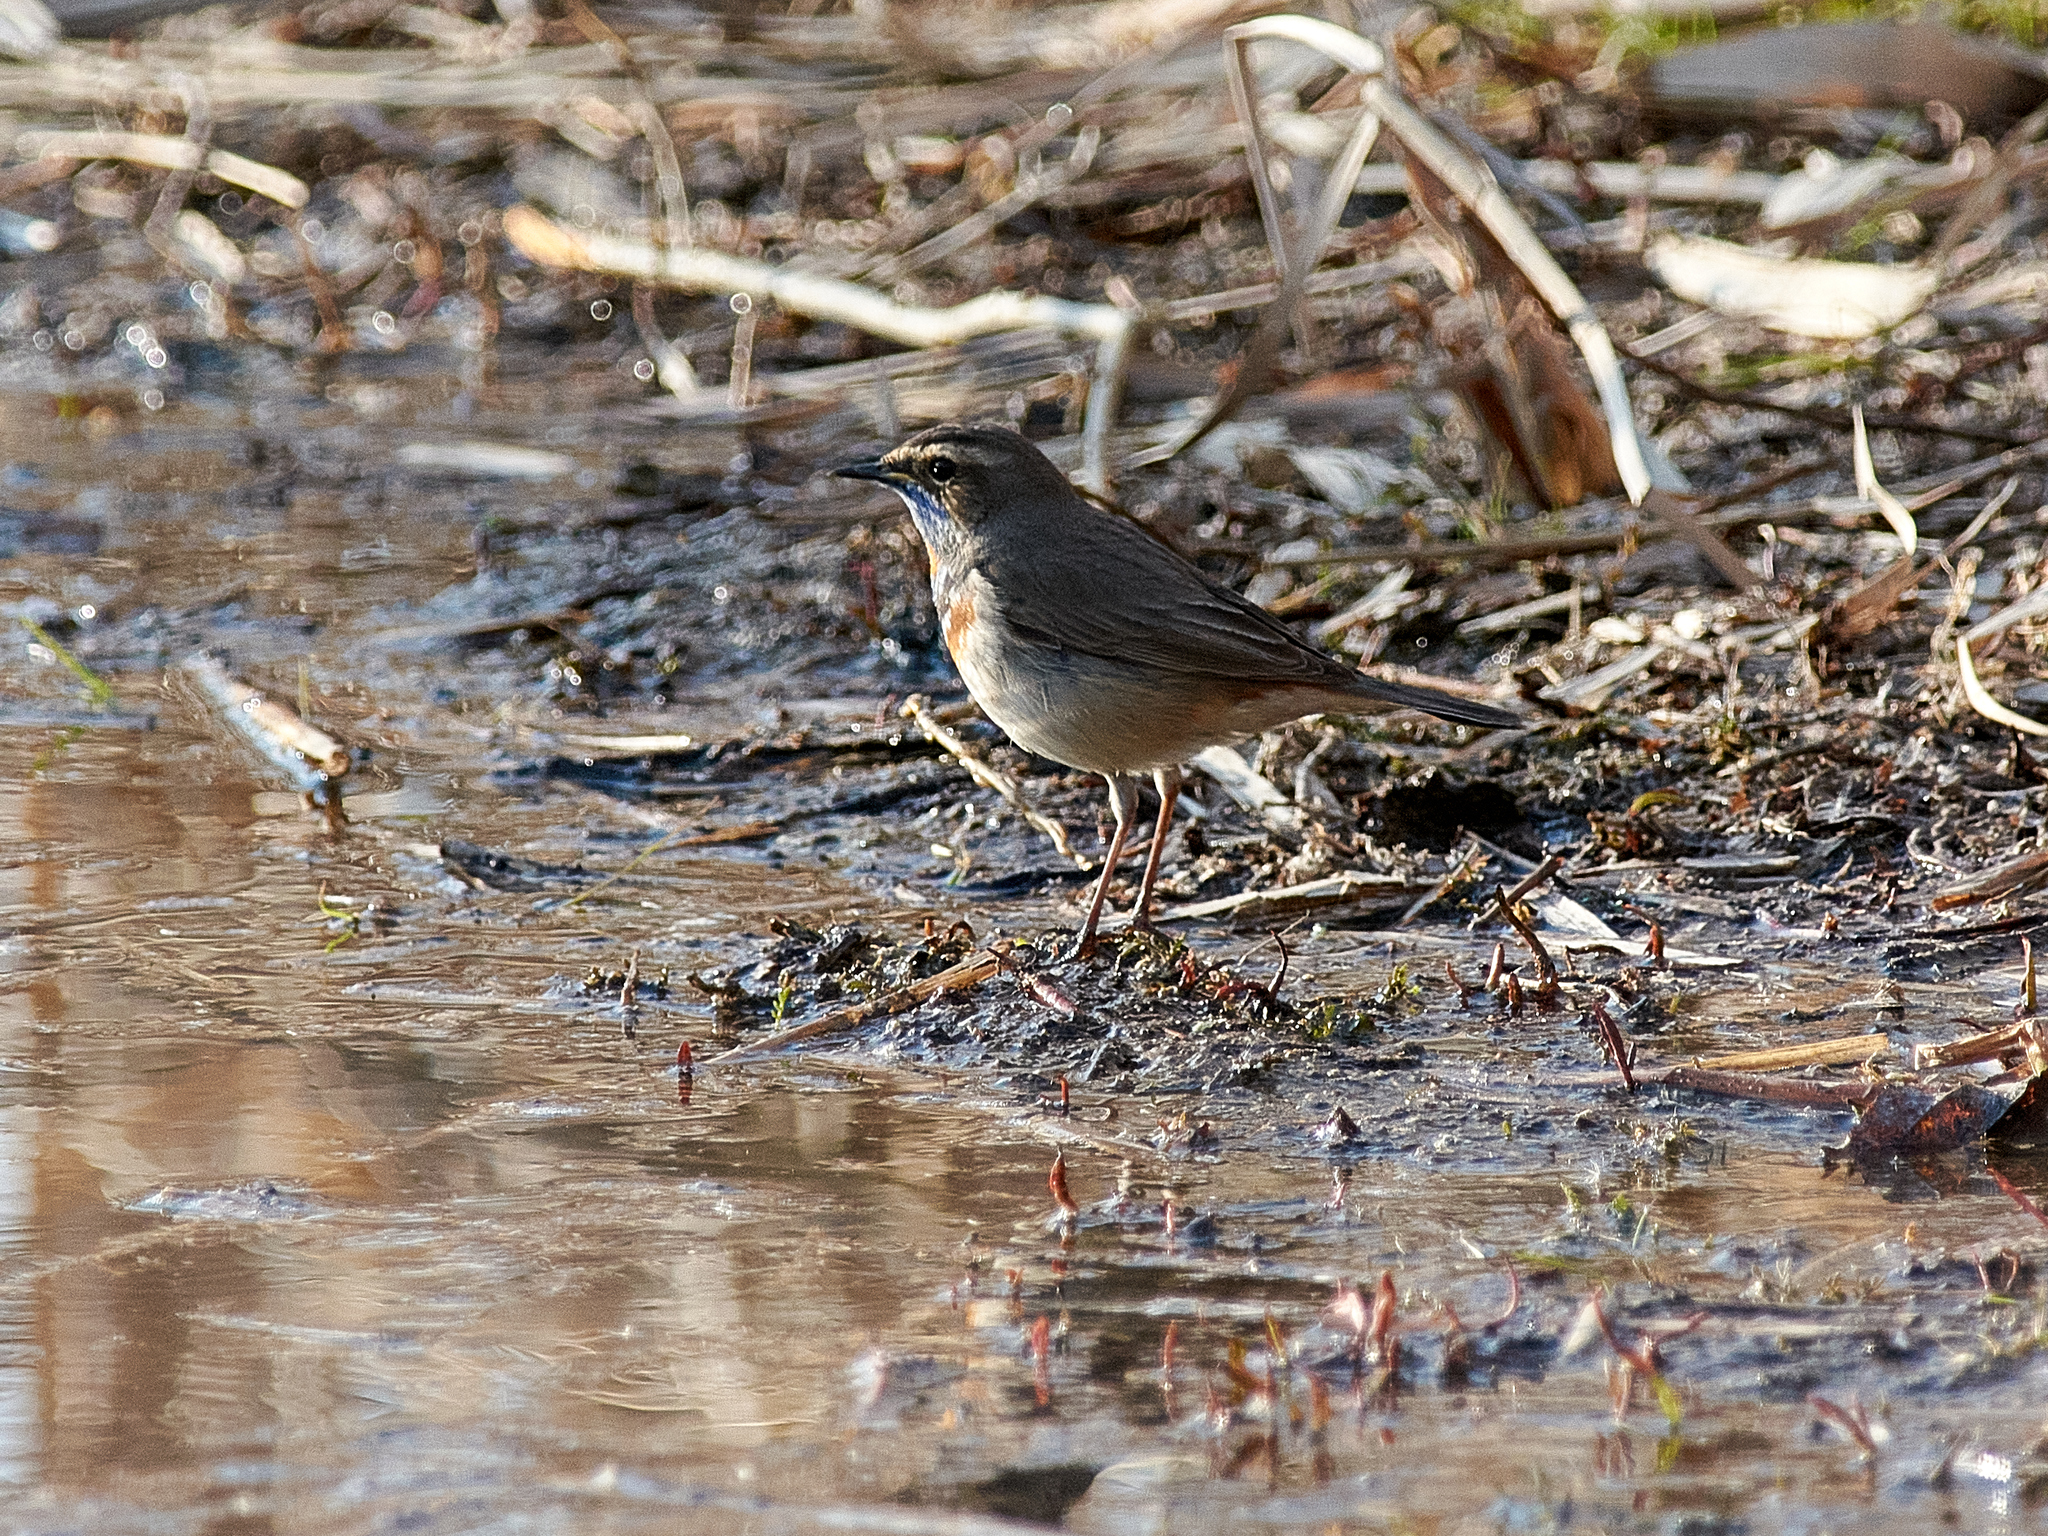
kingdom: Animalia
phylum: Chordata
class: Aves
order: Passeriformes
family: Muscicapidae
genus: Luscinia
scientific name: Luscinia svecica
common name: Bluethroat
